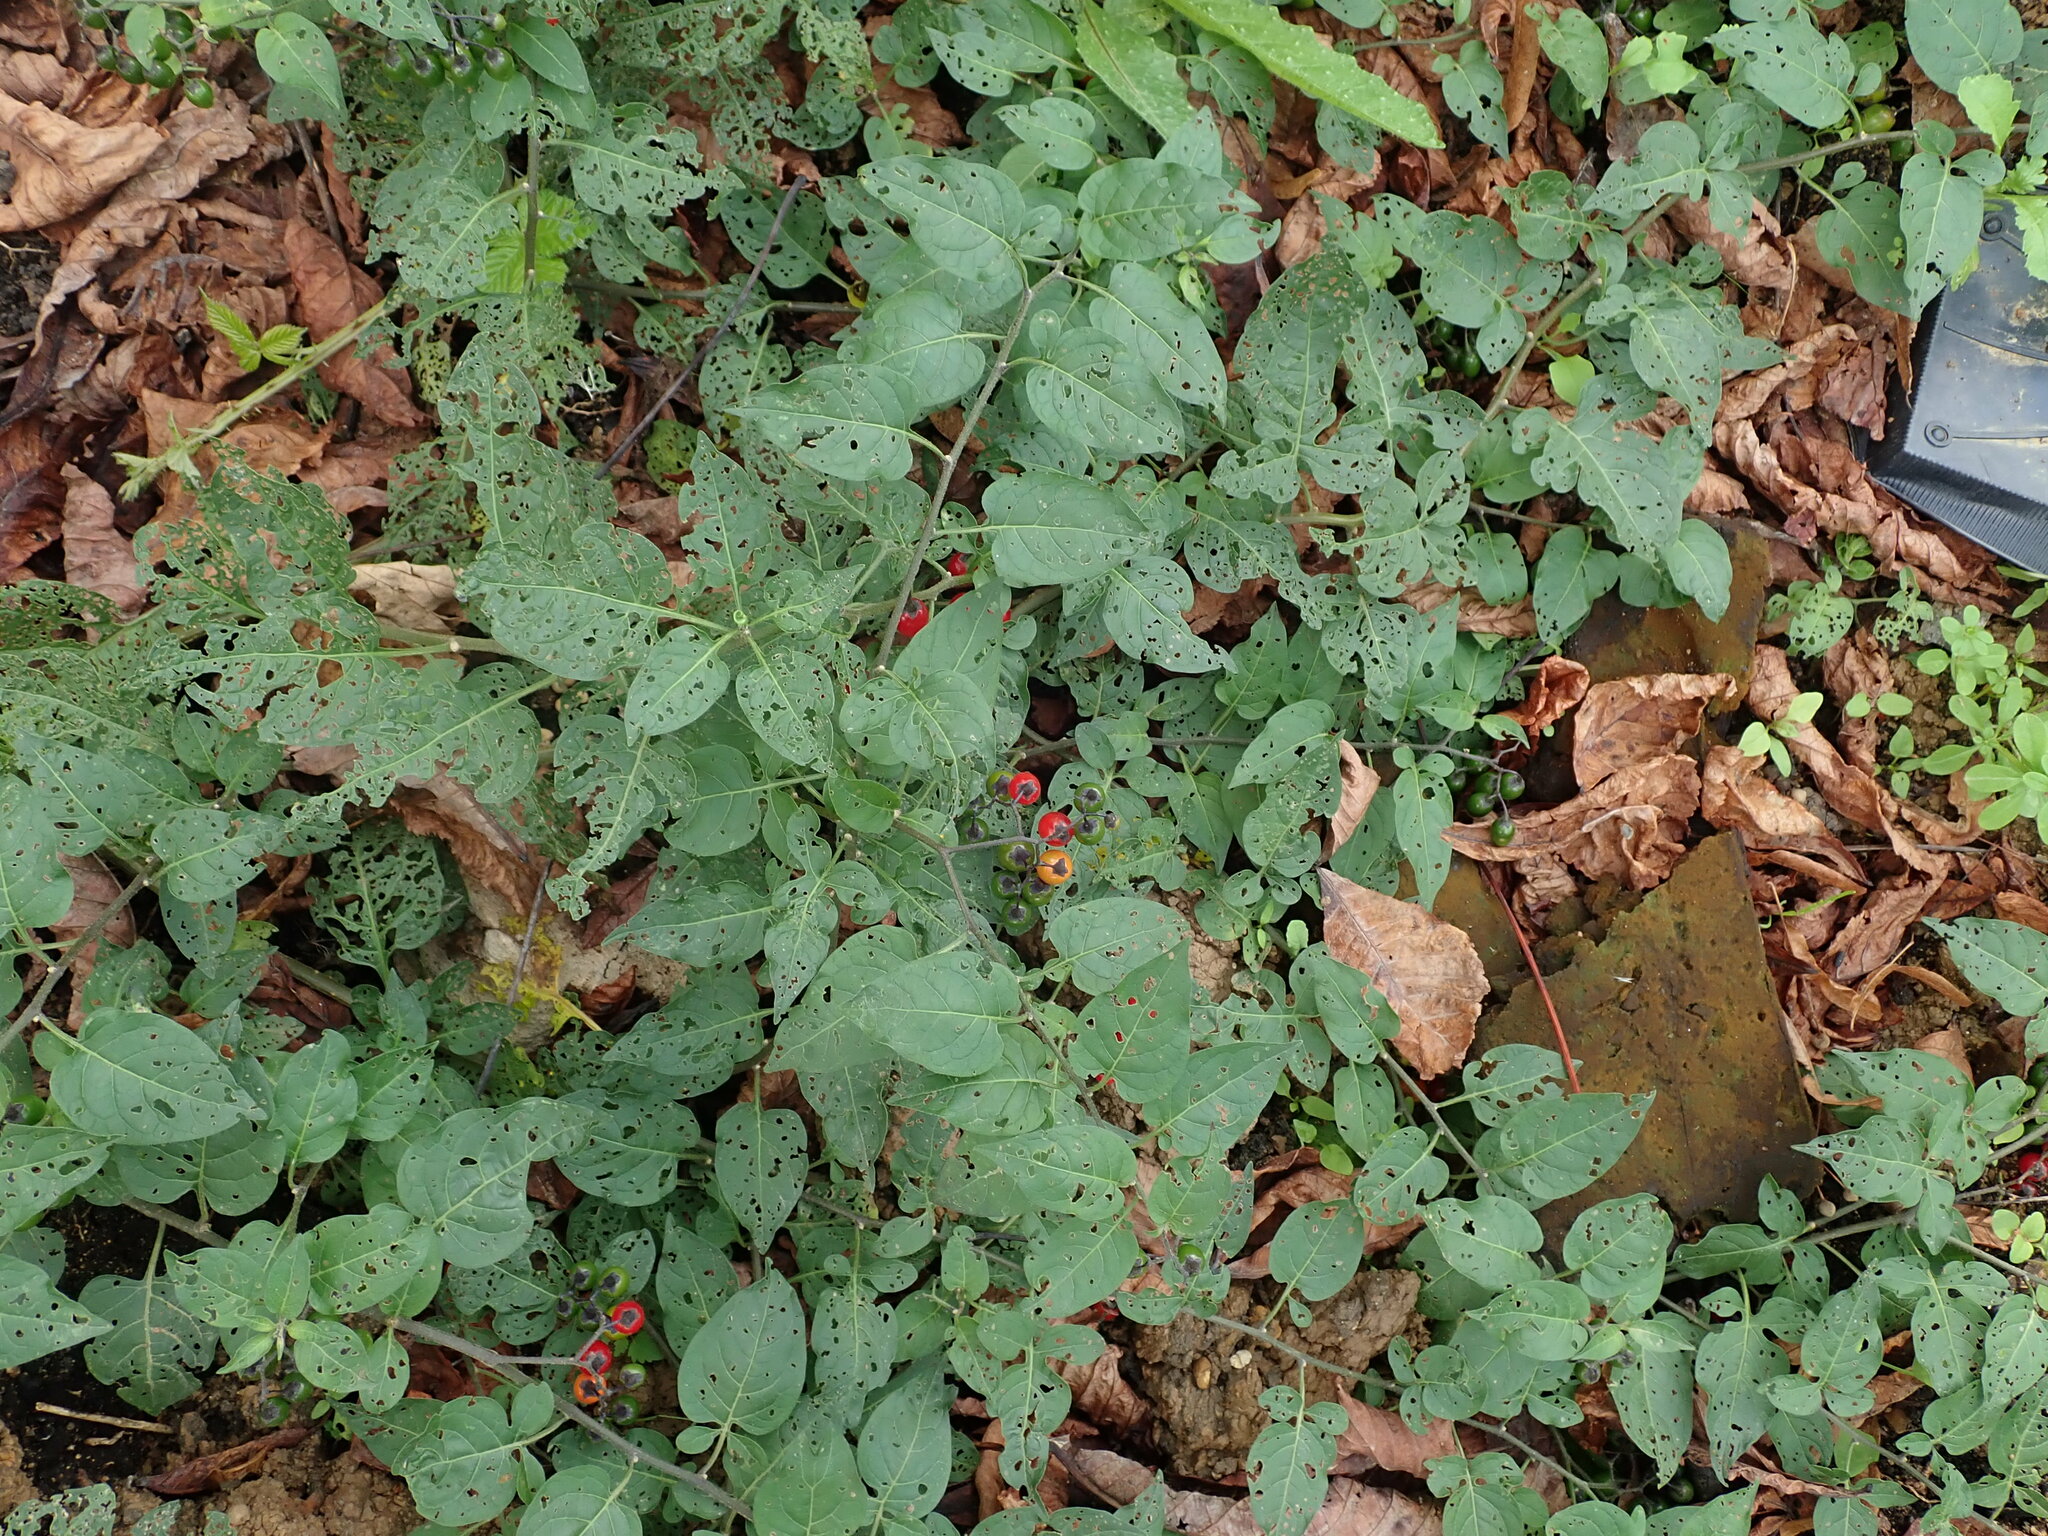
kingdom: Plantae
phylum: Tracheophyta
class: Magnoliopsida
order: Solanales
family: Solanaceae
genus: Solanum
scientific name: Solanum dulcamara
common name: Climbing nightshade
